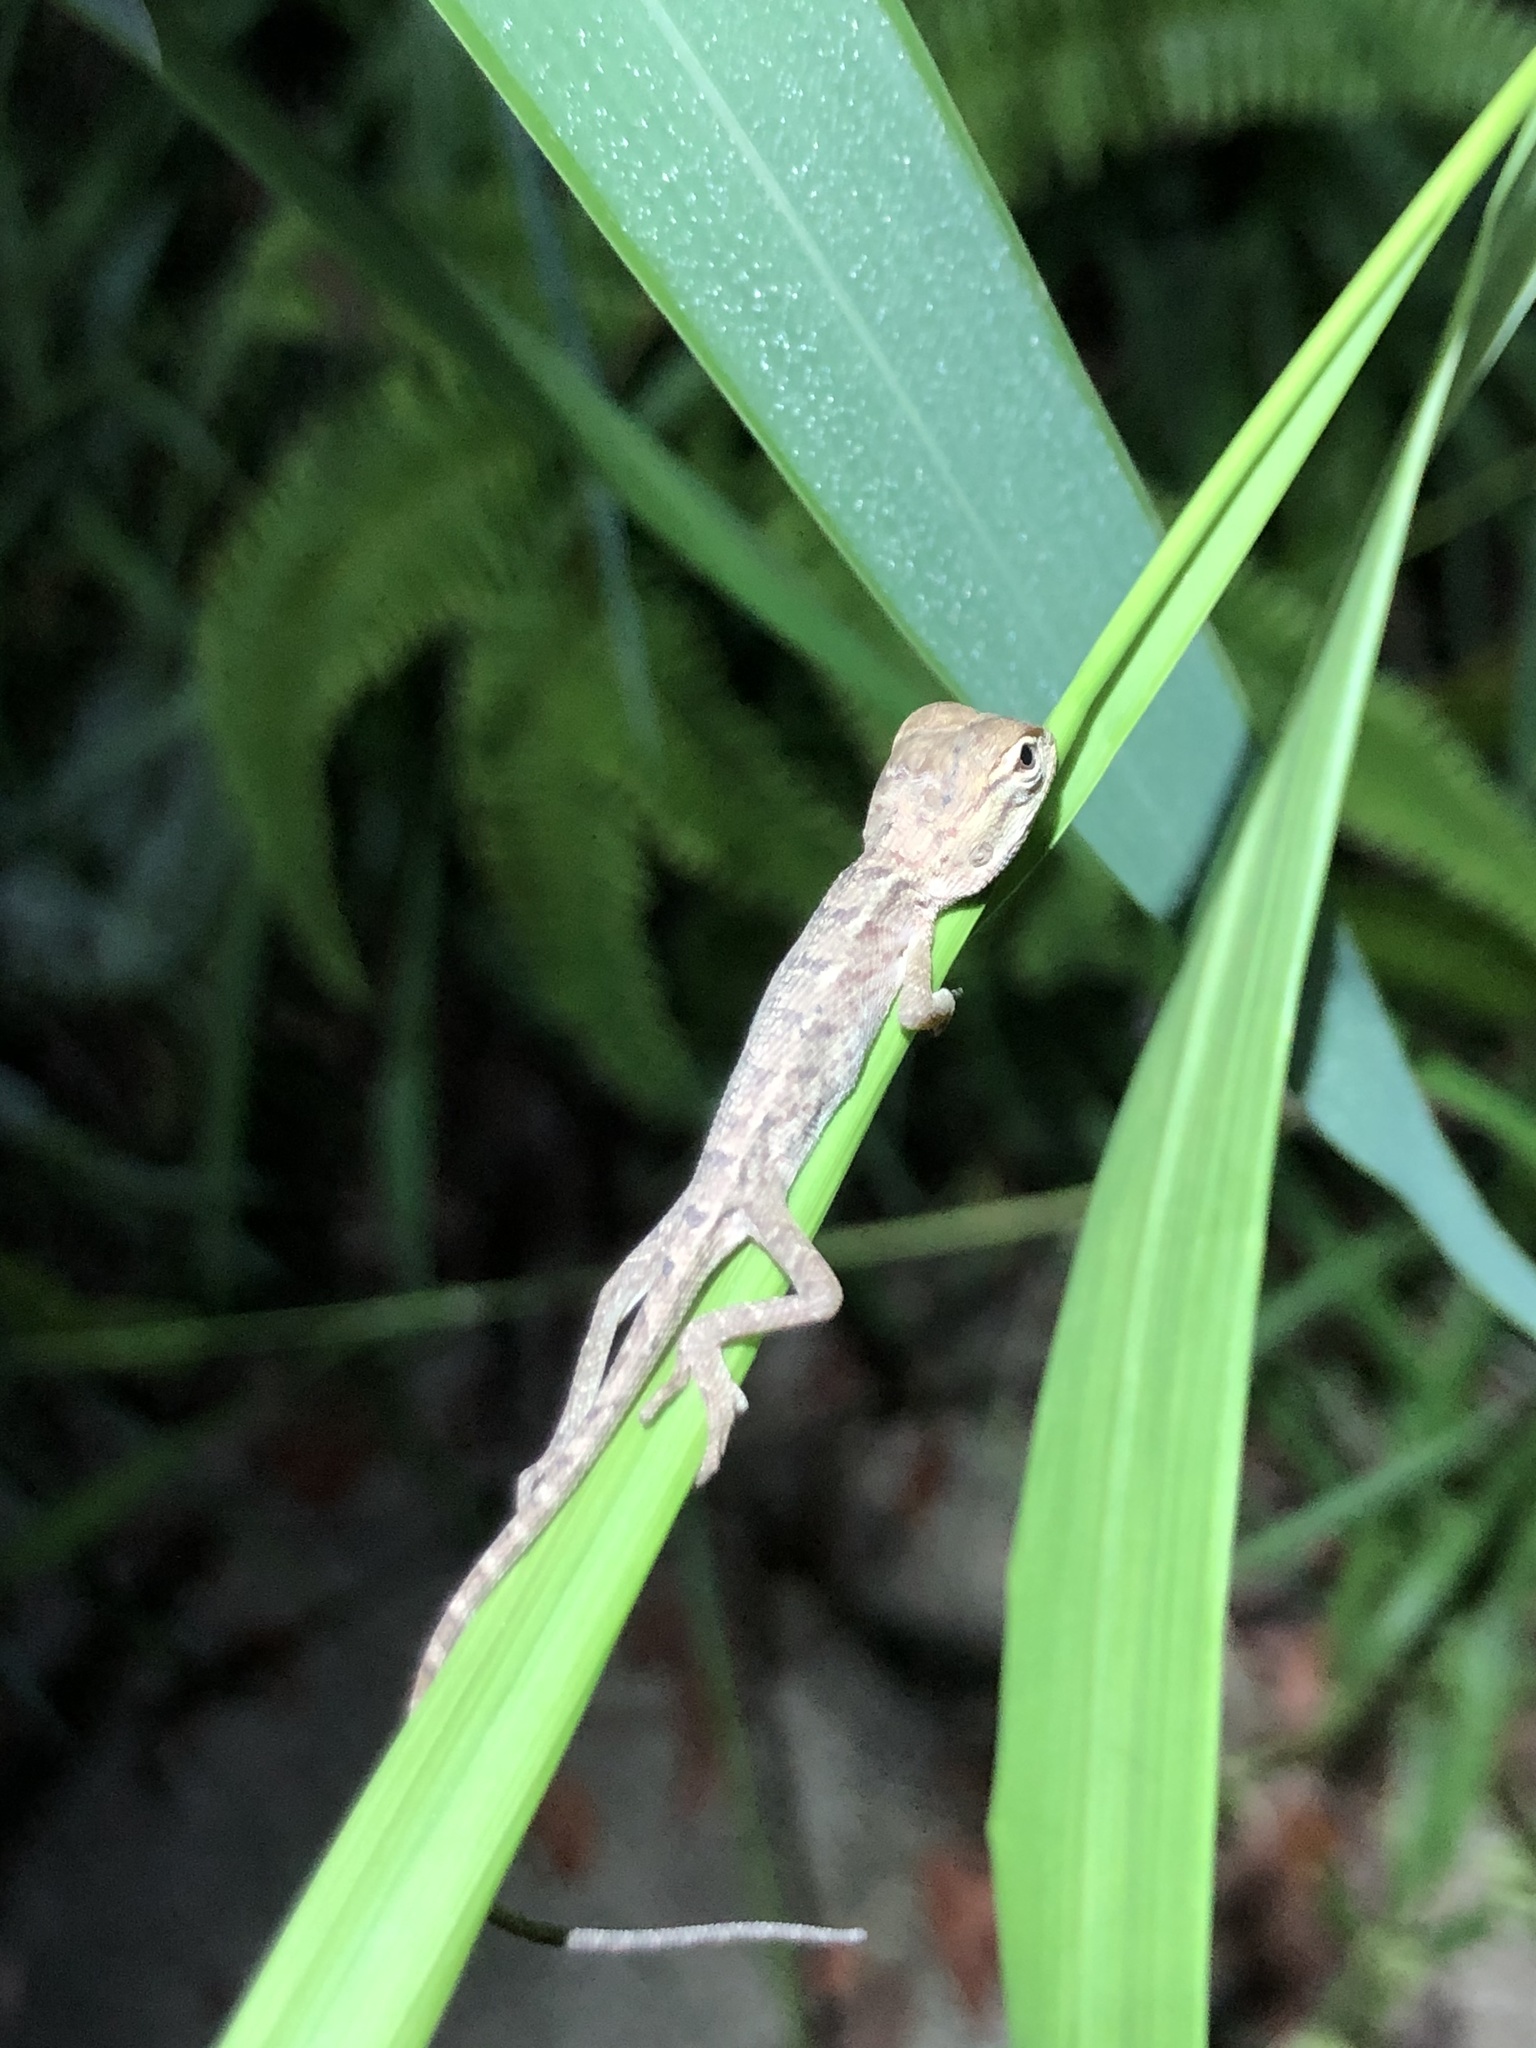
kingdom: Animalia
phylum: Chordata
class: Squamata
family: Agamidae
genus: Calotes
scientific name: Calotes versicolor
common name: Oriental garden lizard
